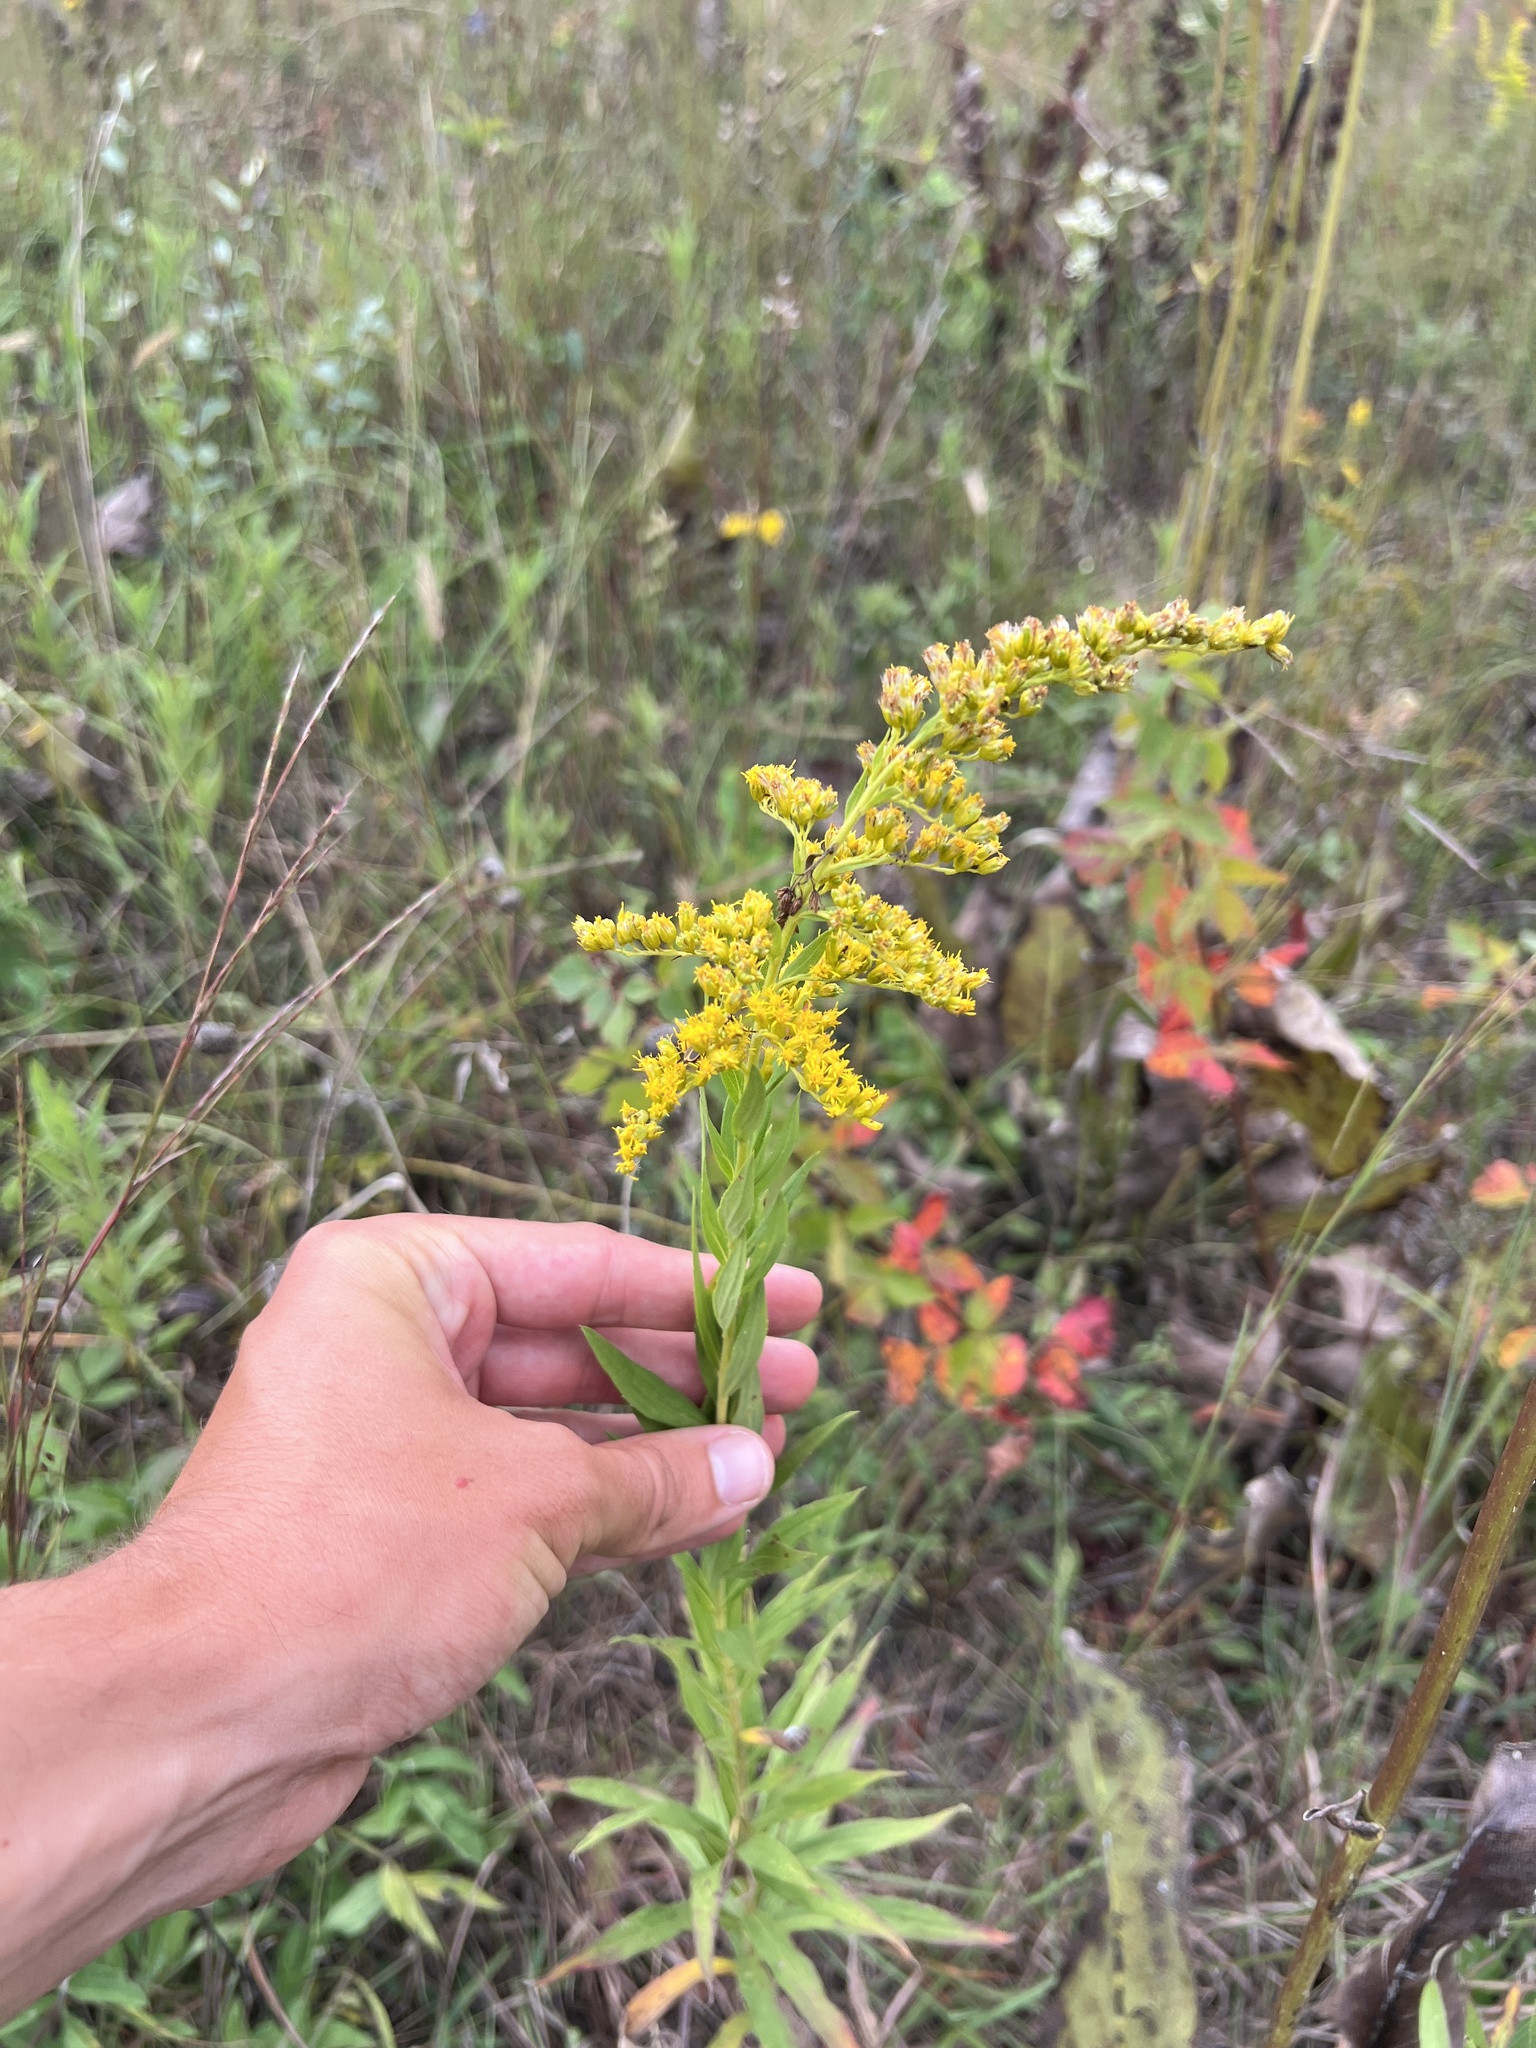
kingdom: Plantae
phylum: Tracheophyta
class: Magnoliopsida
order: Asterales
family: Asteraceae
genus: Solidago
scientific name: Solidago altissima
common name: Late goldenrod
